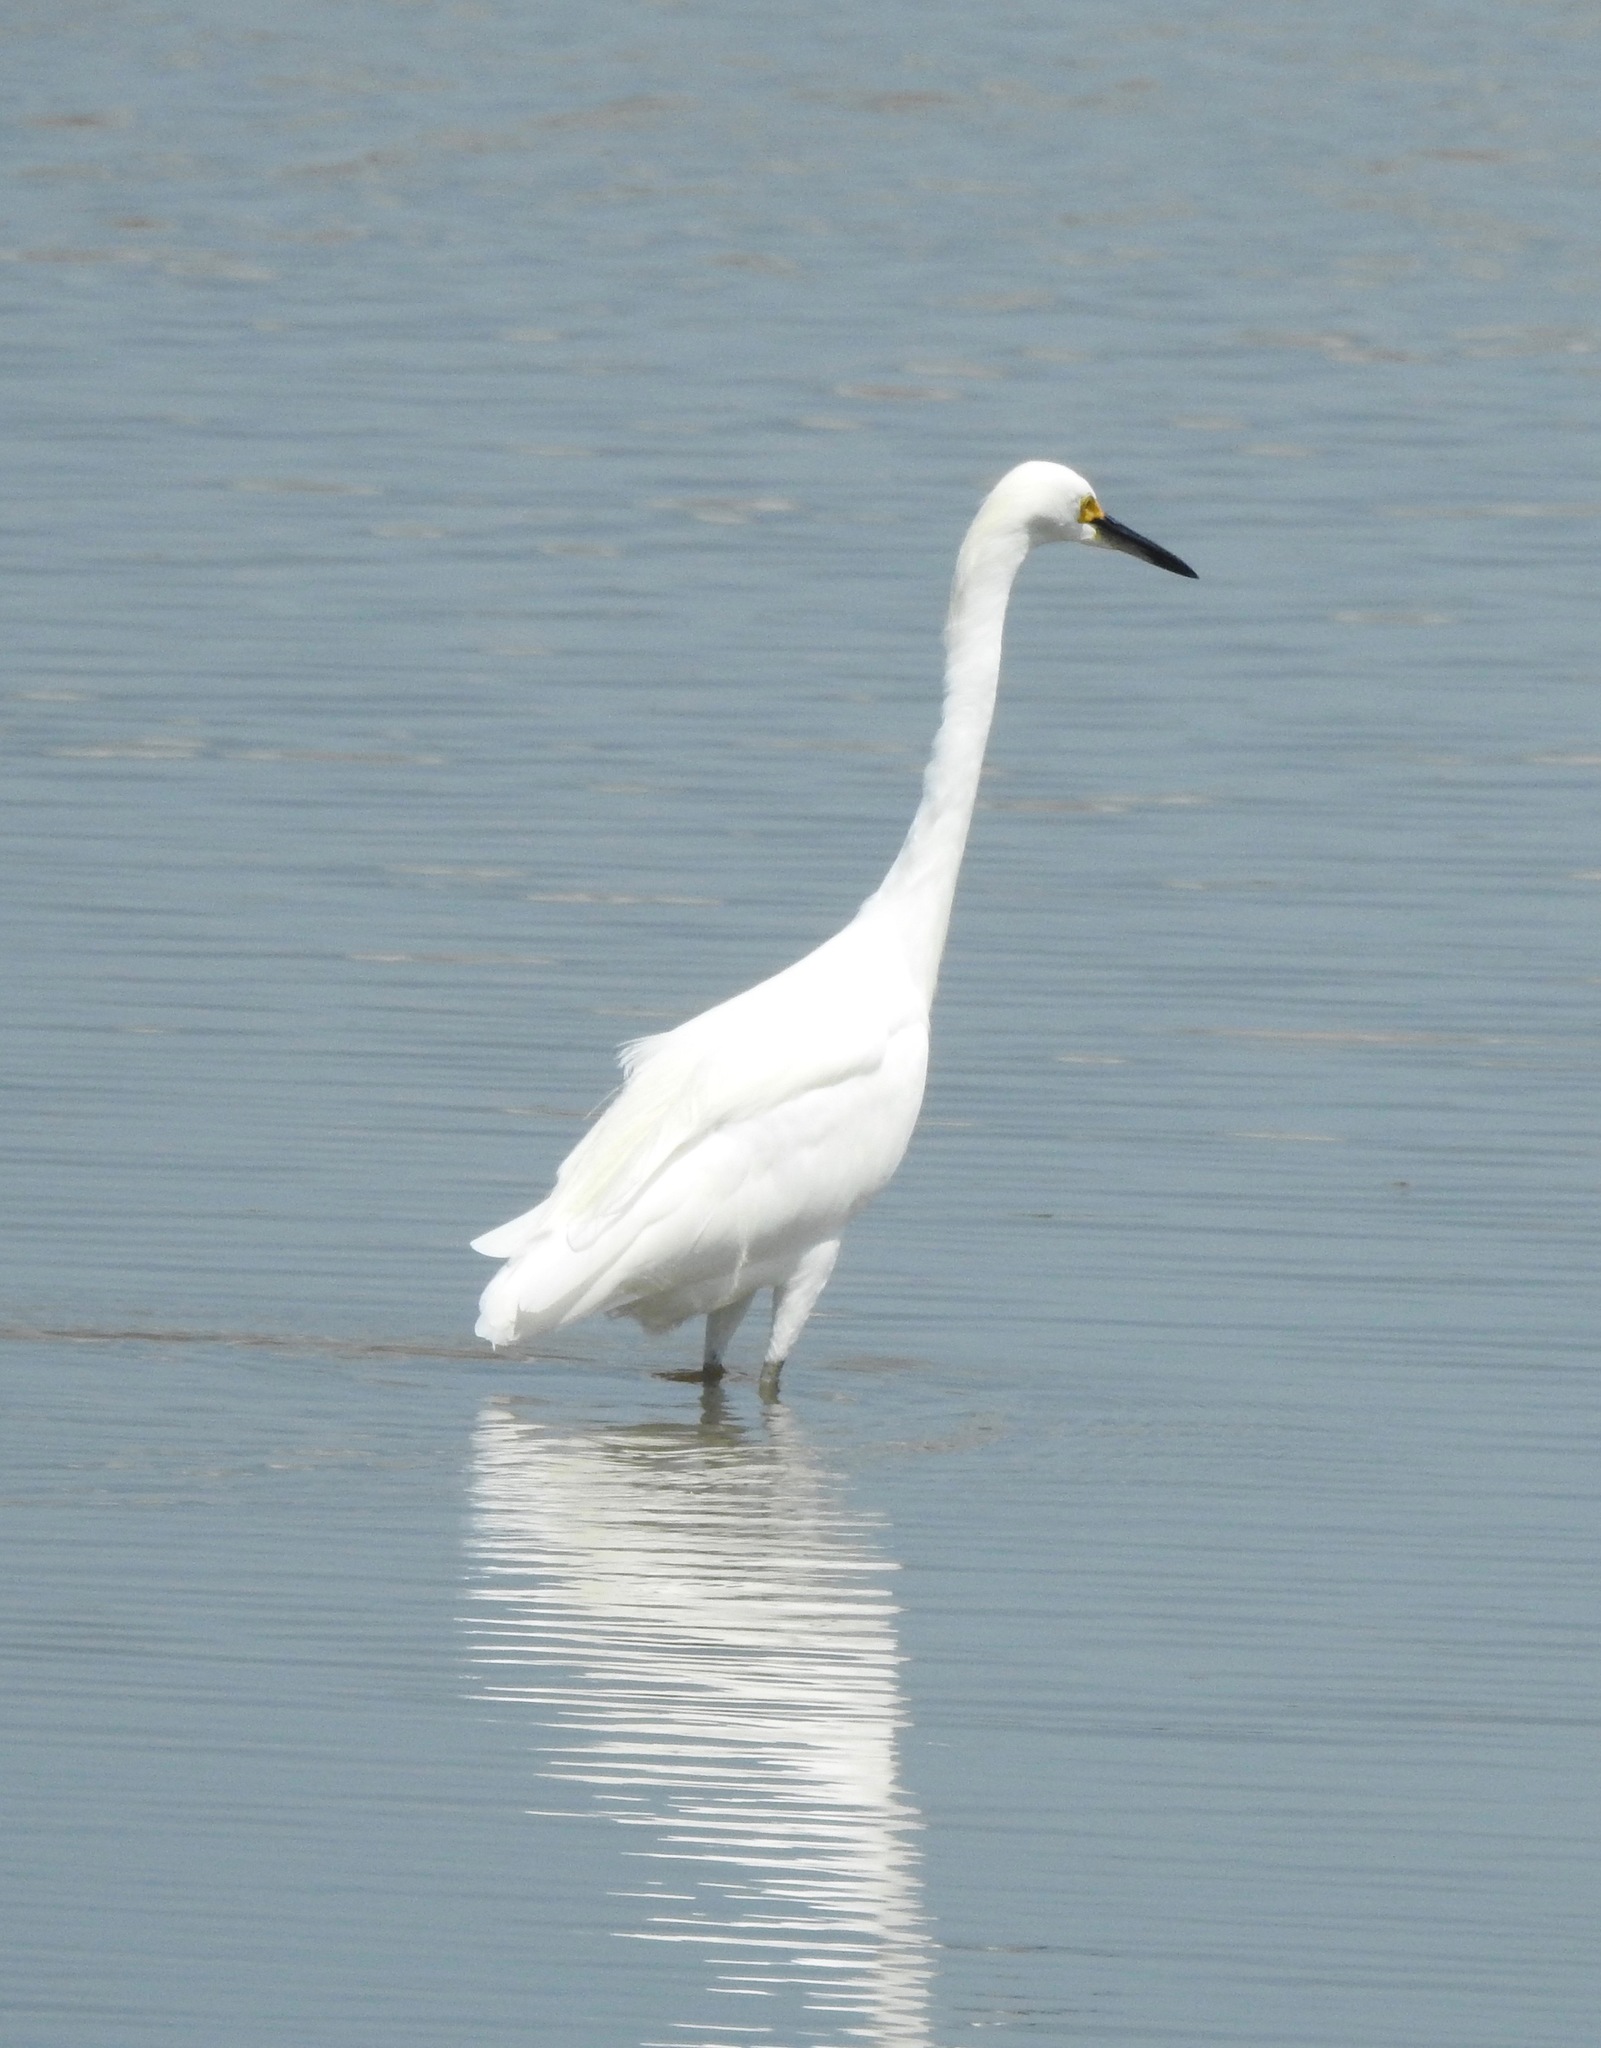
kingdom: Animalia
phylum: Chordata
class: Aves
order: Pelecaniformes
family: Ardeidae
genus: Egretta
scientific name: Egretta thula
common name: Snowy egret
